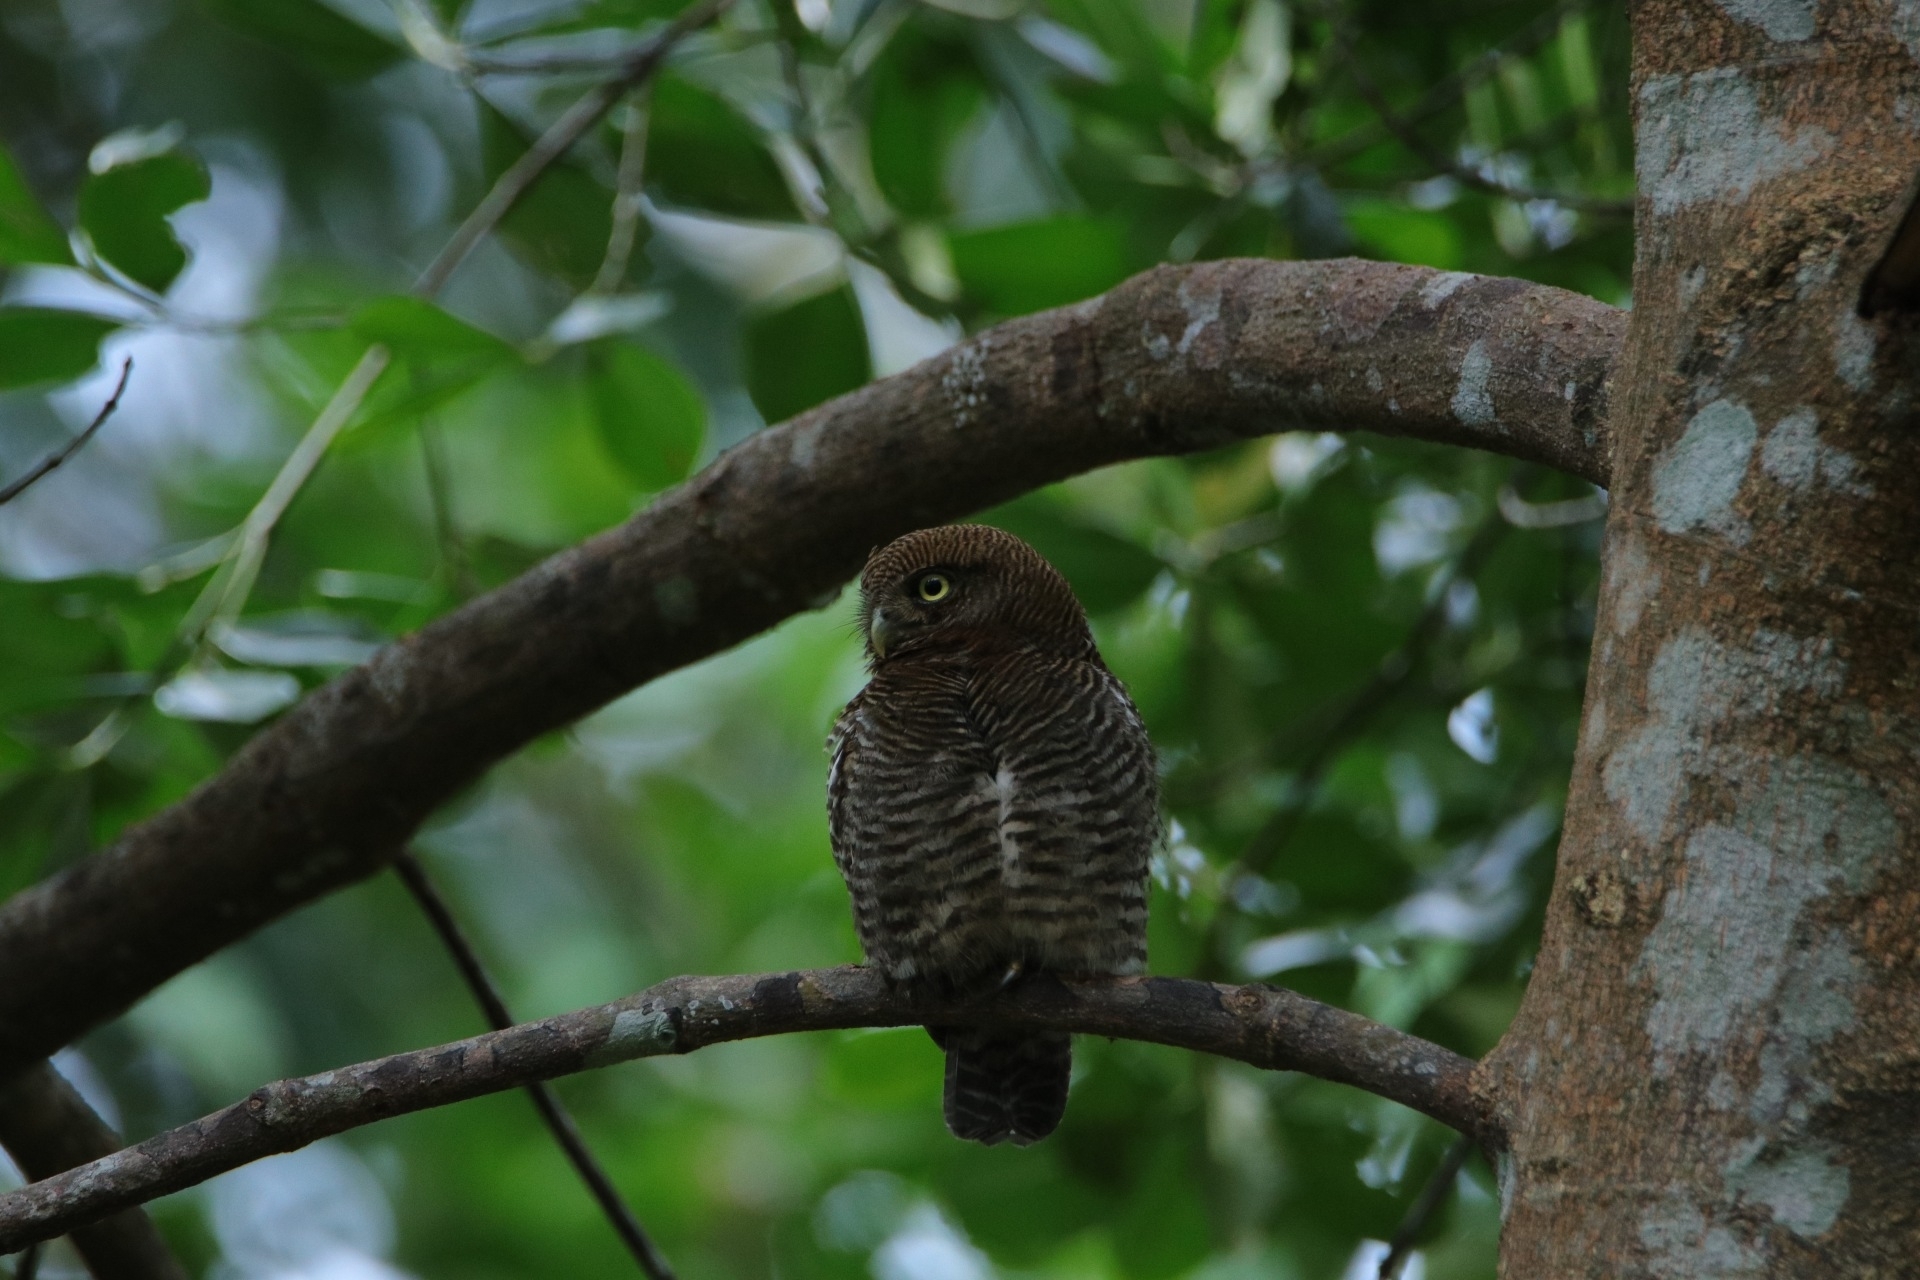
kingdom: Animalia
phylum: Chordata
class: Aves
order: Strigiformes
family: Strigidae
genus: Glaucidium
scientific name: Glaucidium radiatum
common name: Jungle owlet
